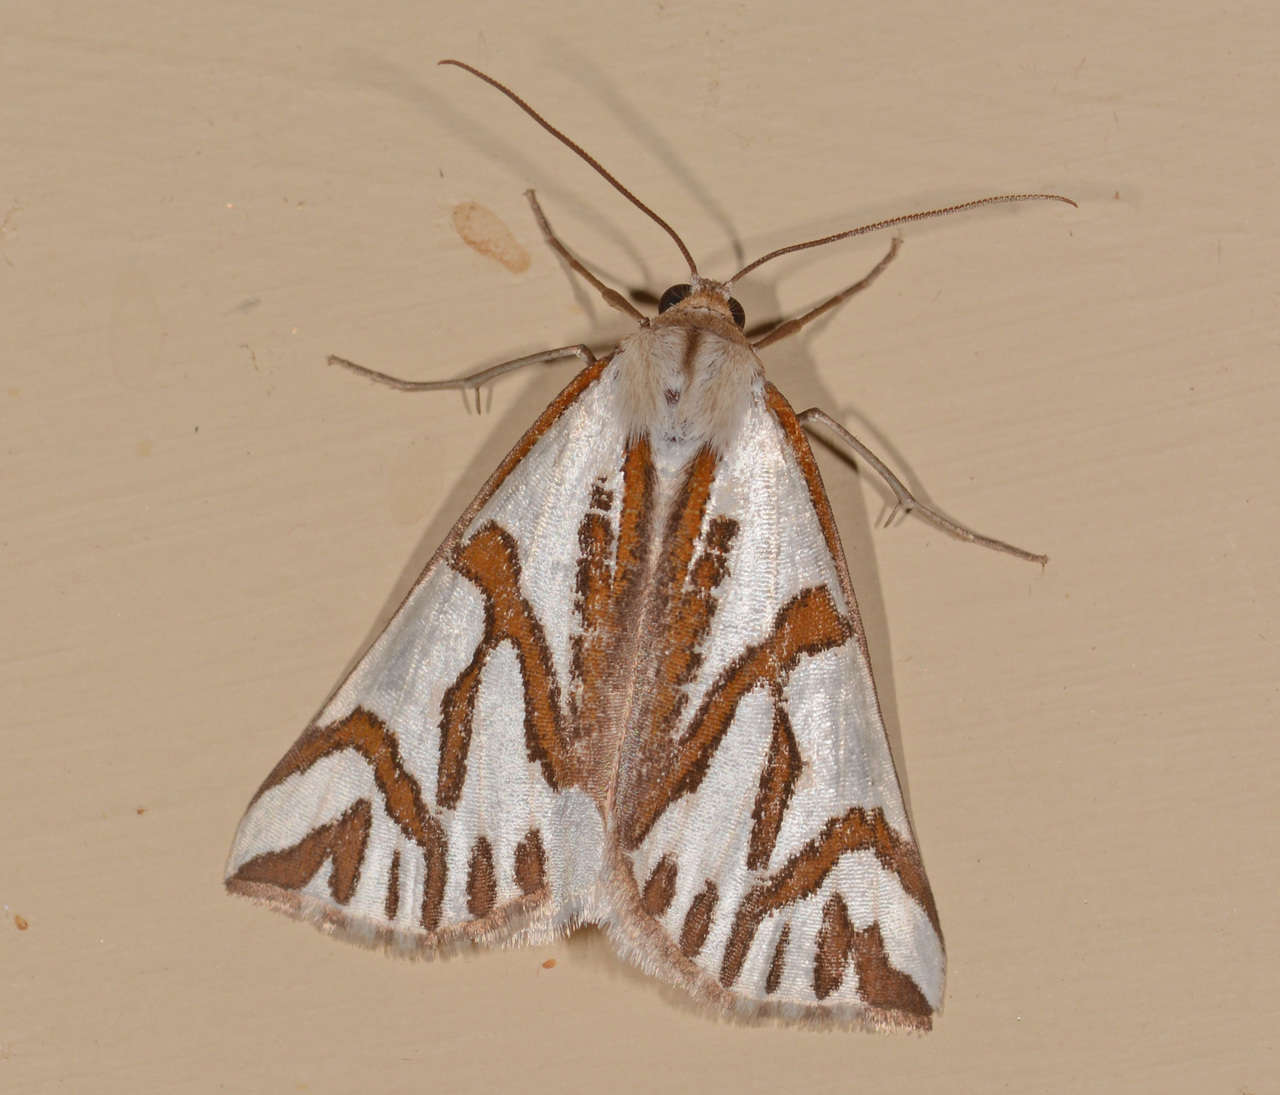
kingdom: Animalia
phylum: Arthropoda
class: Insecta
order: Lepidoptera
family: Geometridae
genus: Thalaina
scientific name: Thalaina inscripta
